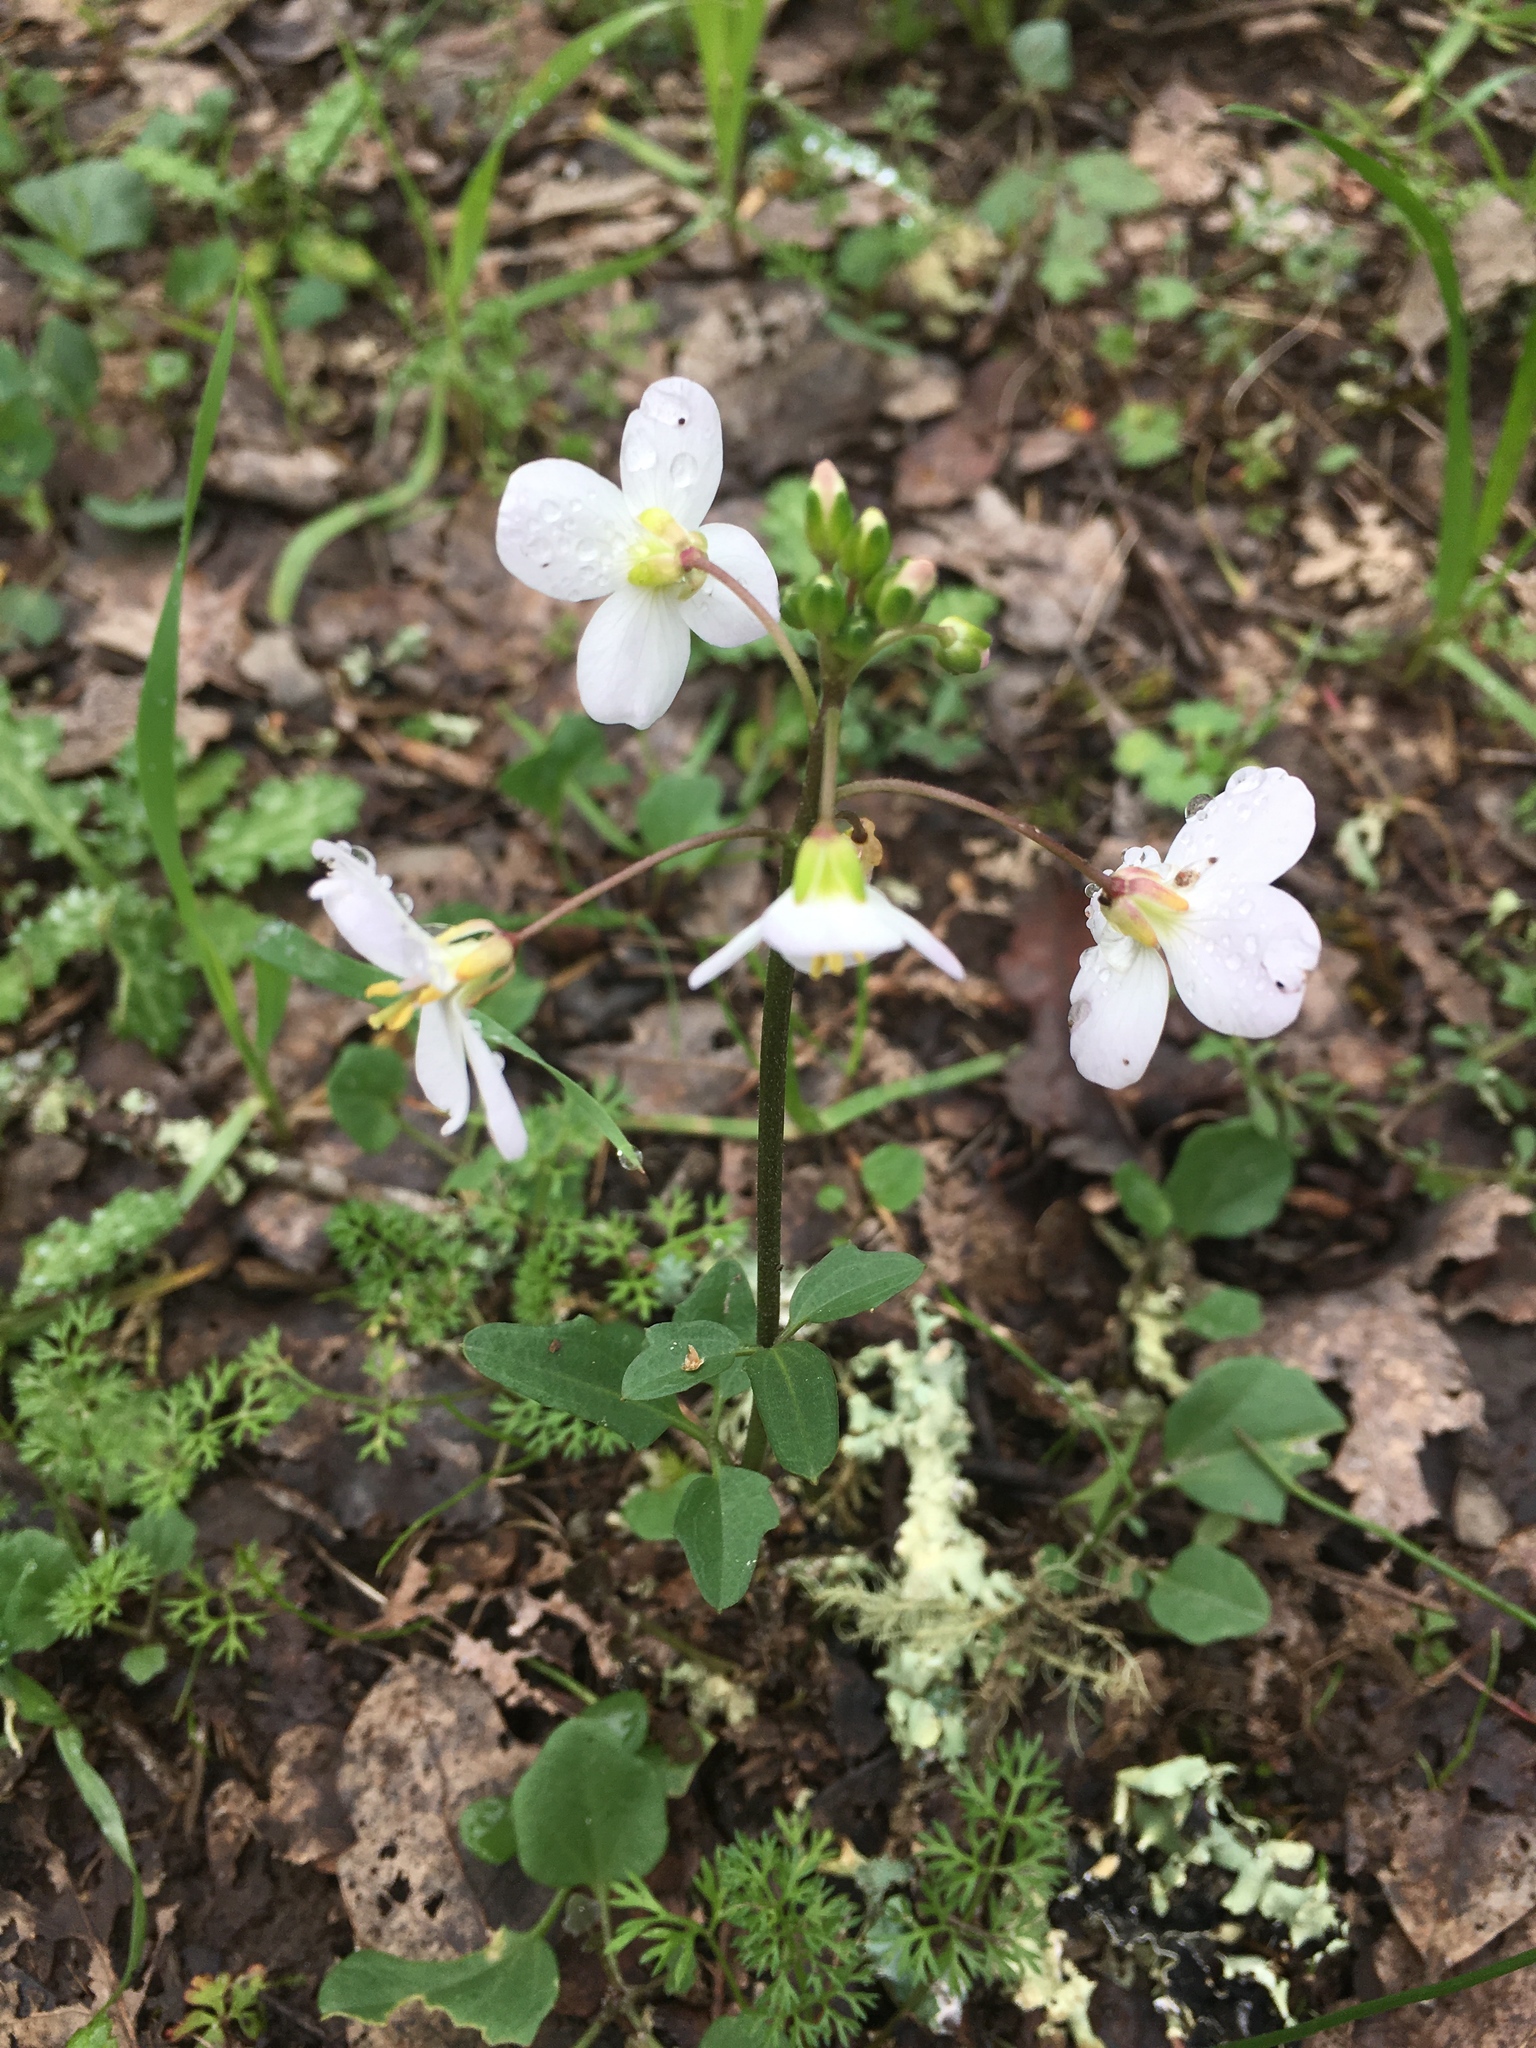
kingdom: Plantae
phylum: Tracheophyta
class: Magnoliopsida
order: Brassicales
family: Brassicaceae
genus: Cardamine
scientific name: Cardamine californica
